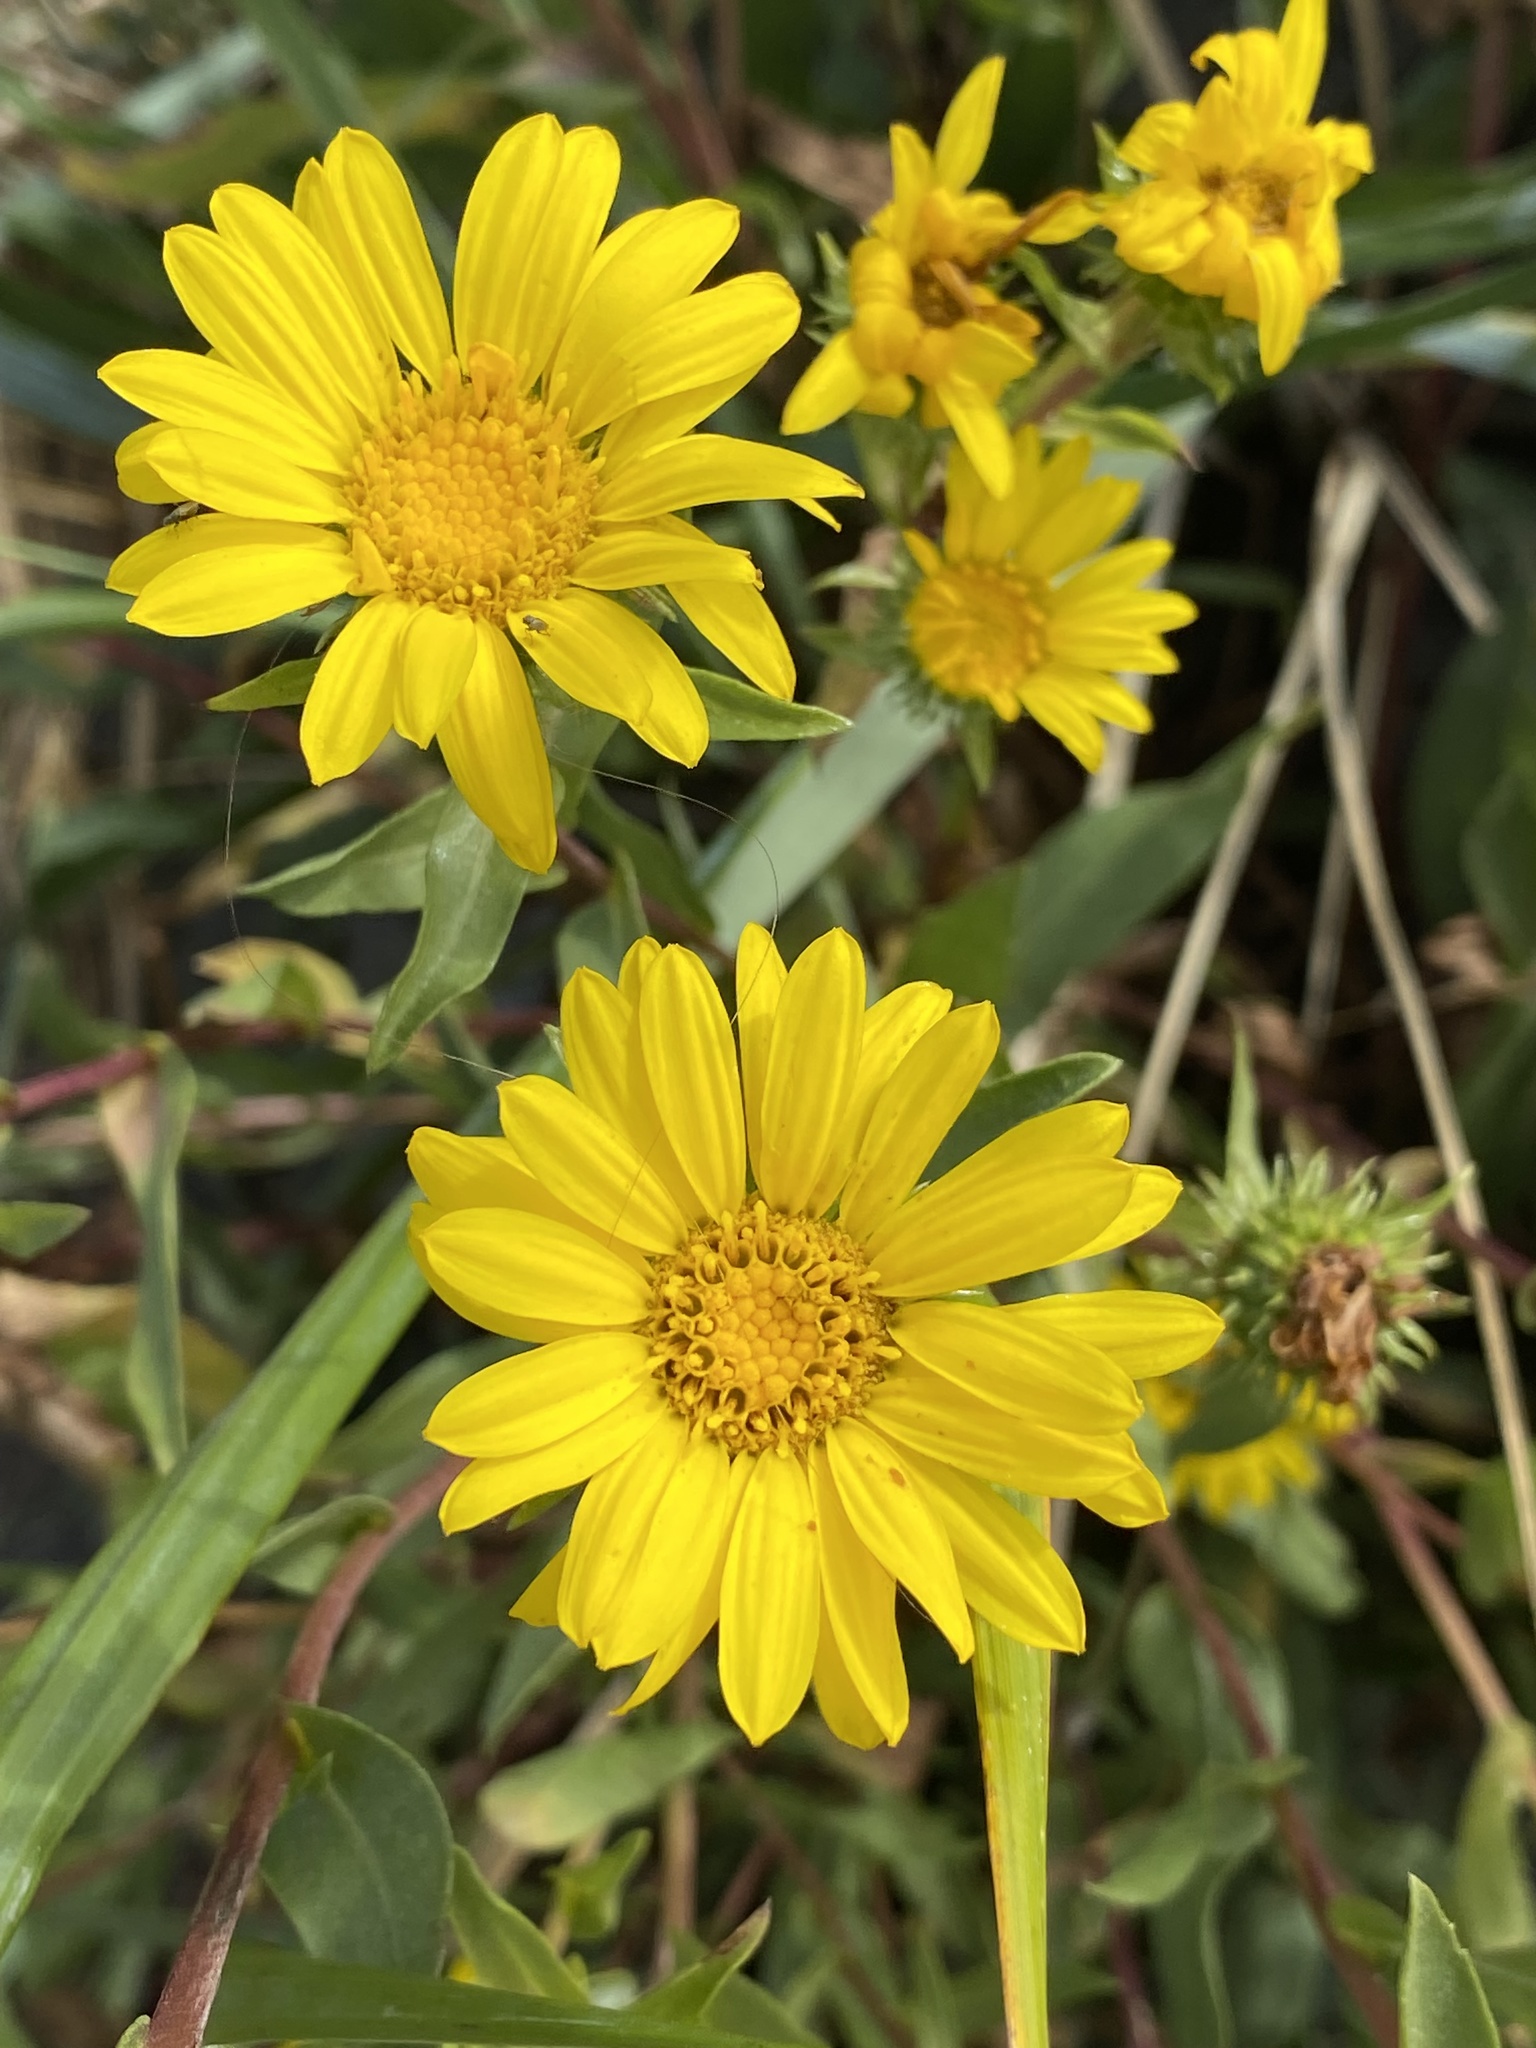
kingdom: Plantae
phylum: Tracheophyta
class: Magnoliopsida
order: Asterales
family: Asteraceae
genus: Grindelia
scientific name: Grindelia integrifolia
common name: Puget sound gumweed
